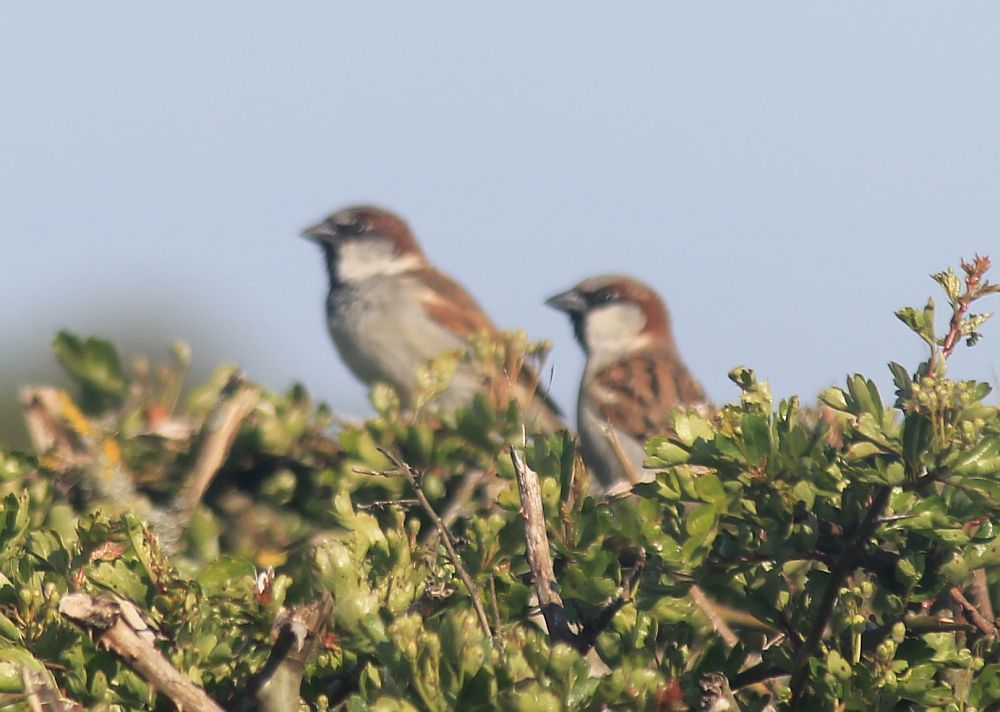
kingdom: Animalia
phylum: Chordata
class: Aves
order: Passeriformes
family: Passeridae
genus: Passer
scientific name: Passer domesticus
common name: House sparrow
